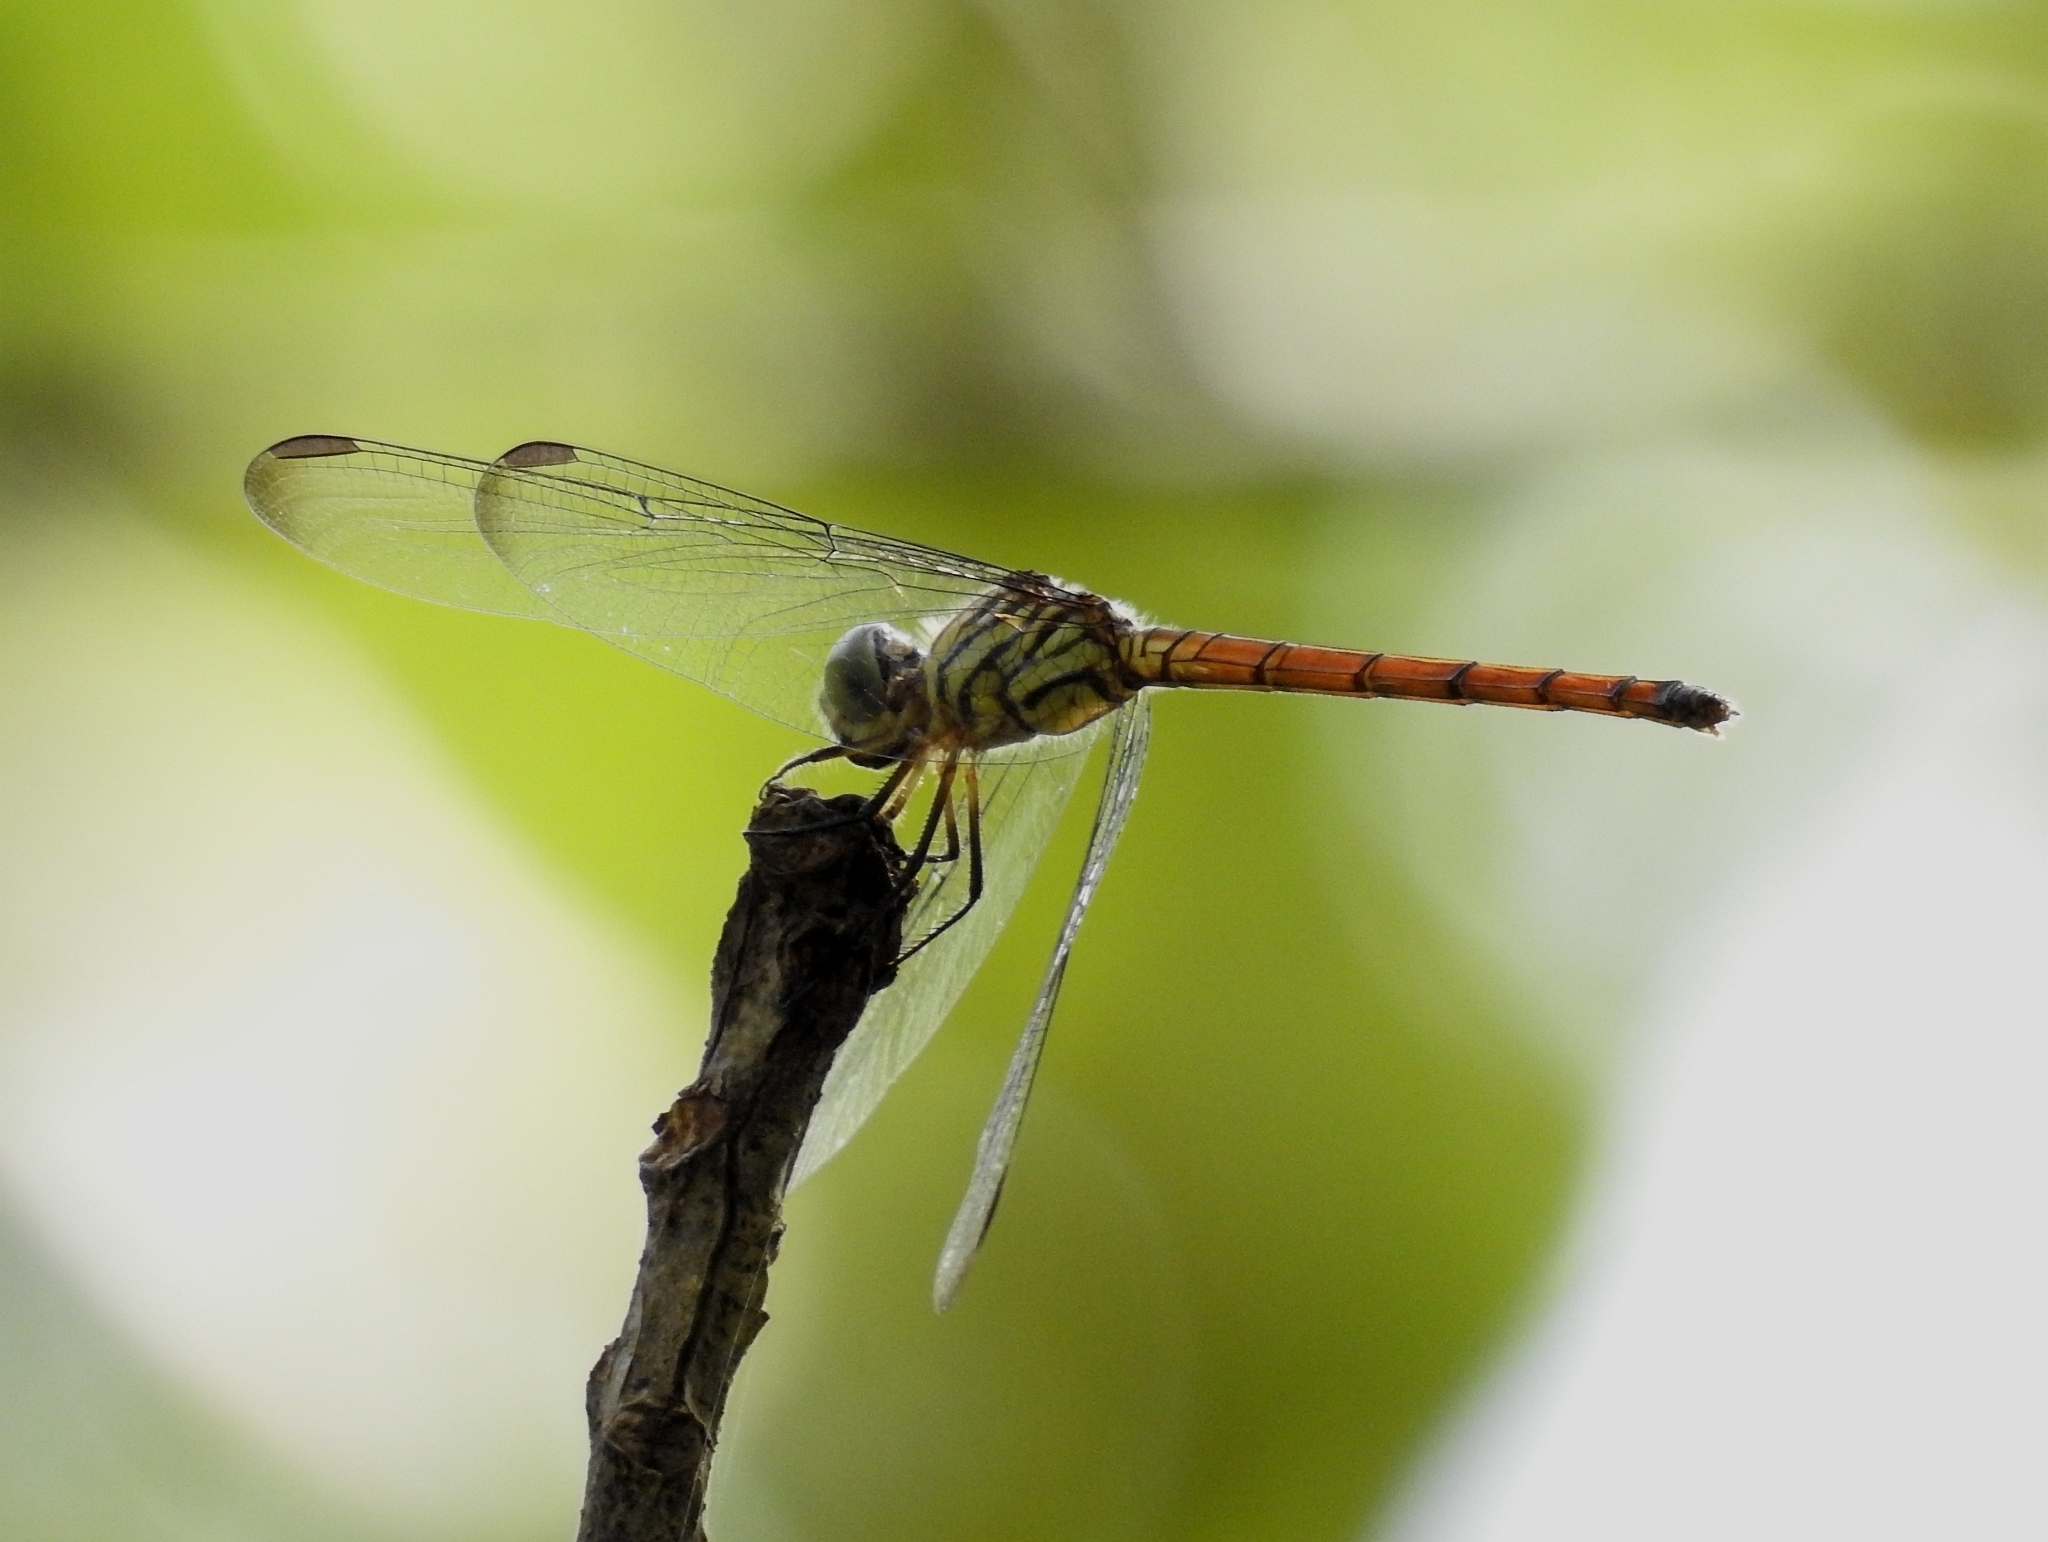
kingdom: Animalia
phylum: Arthropoda
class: Insecta
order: Odonata
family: Libellulidae
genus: Lathrecista
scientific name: Lathrecista asiatica
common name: Scarlet grenadier
